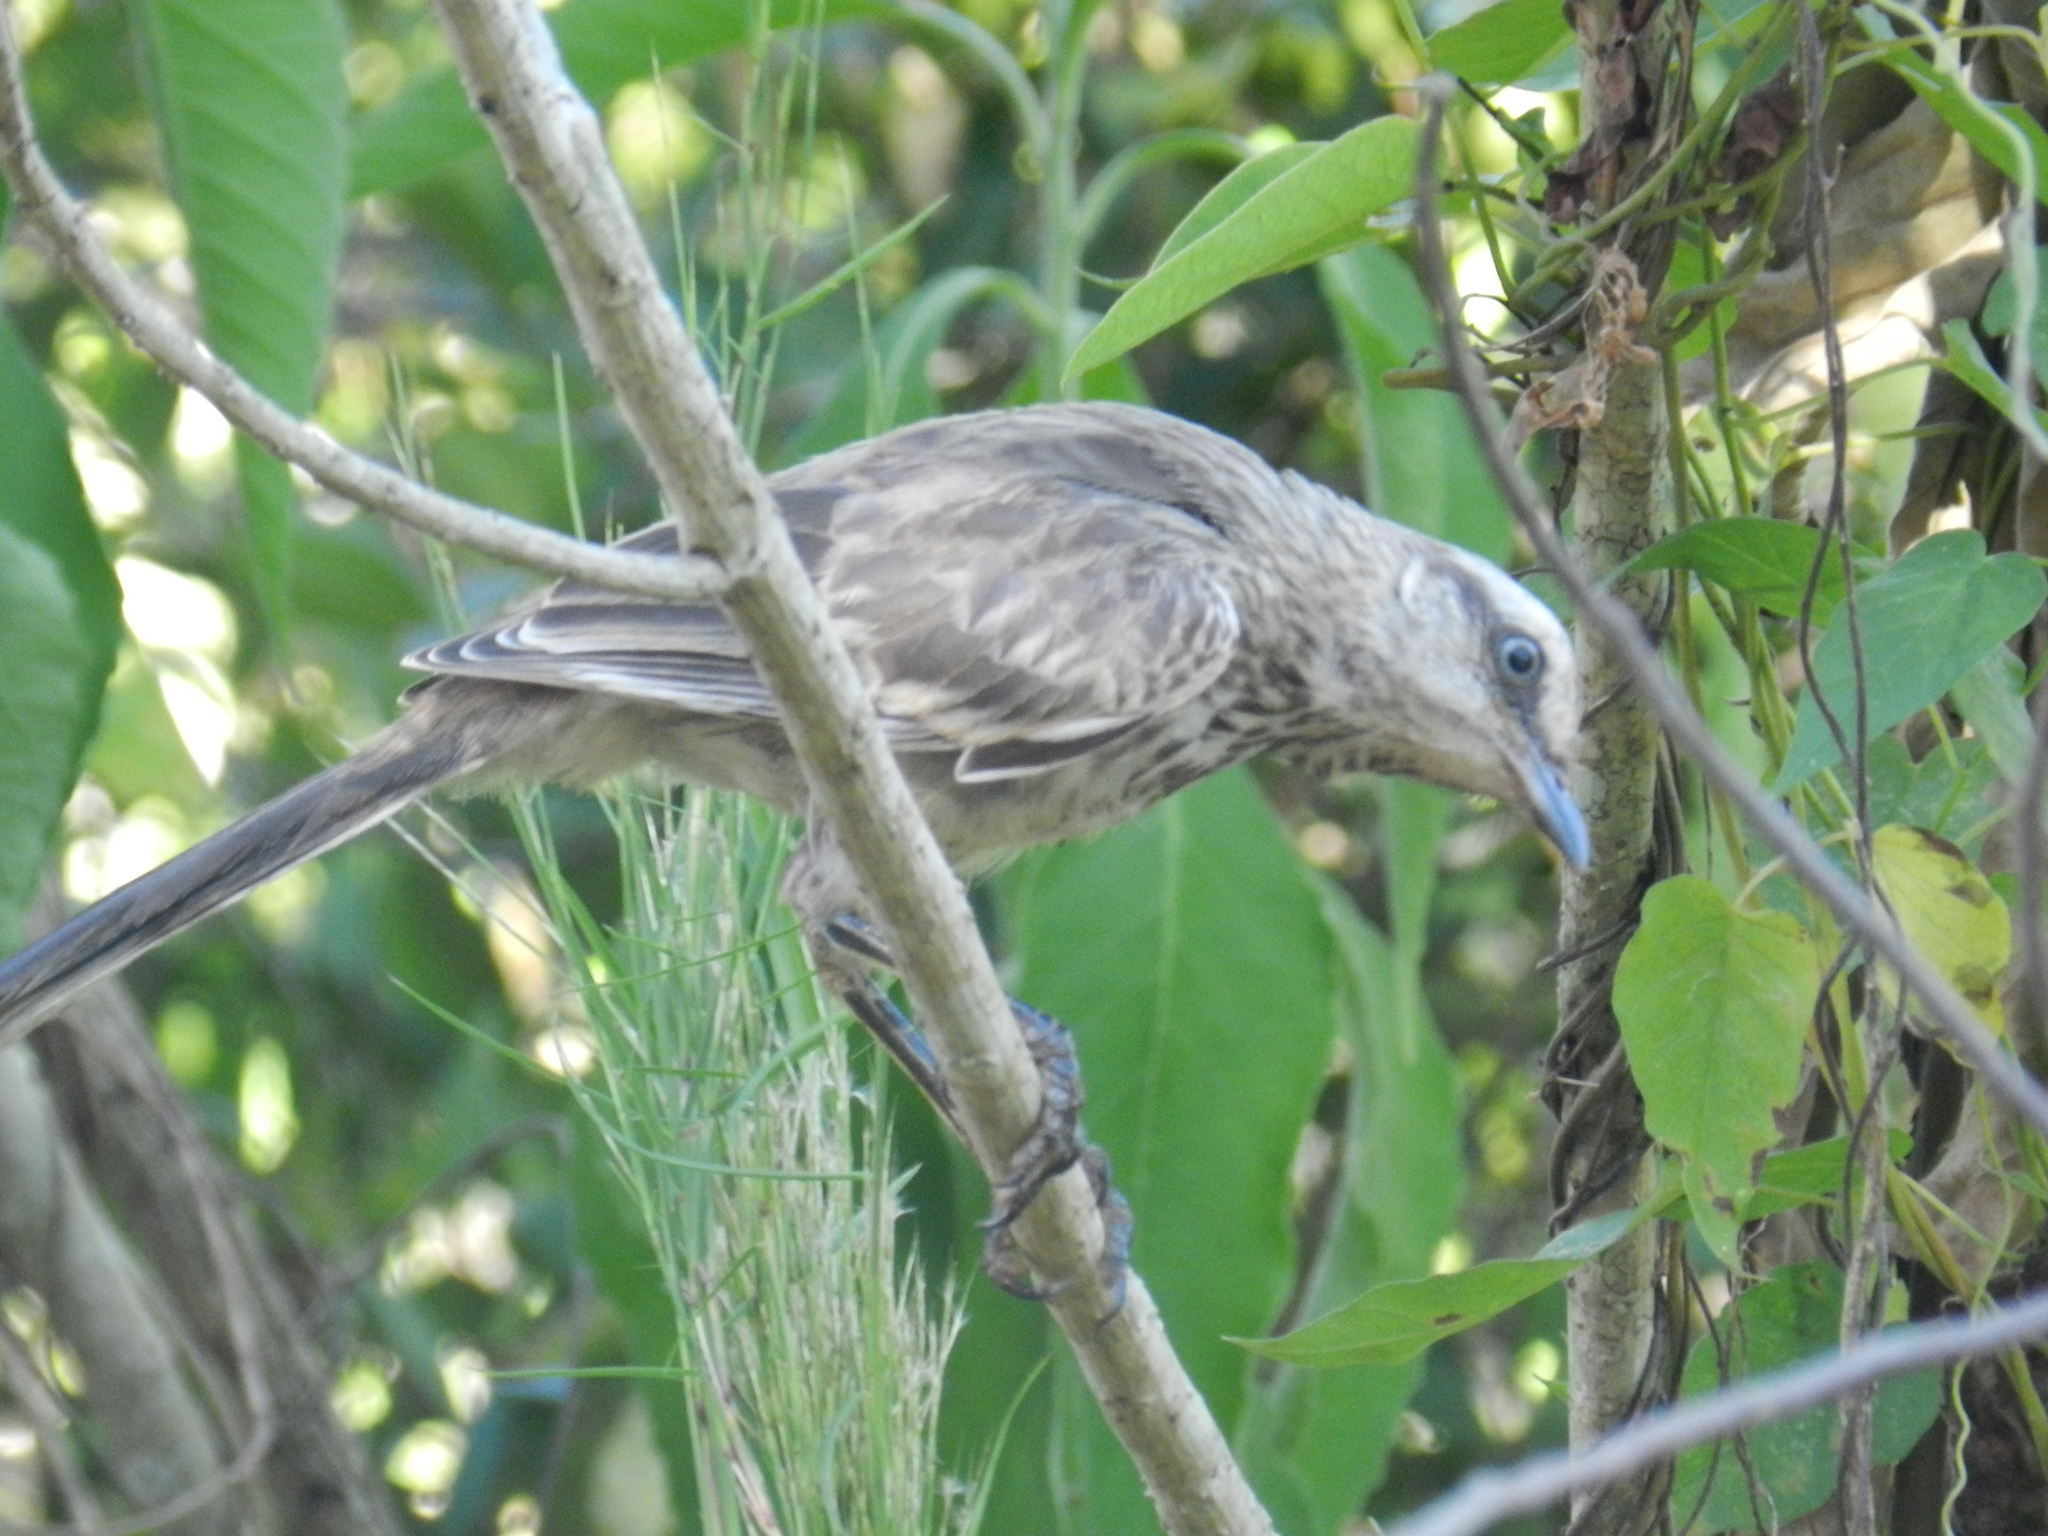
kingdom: Animalia
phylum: Chordata
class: Aves
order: Passeriformes
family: Mimidae
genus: Mimus
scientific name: Mimus saturninus
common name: Chalk-browed mockingbird
